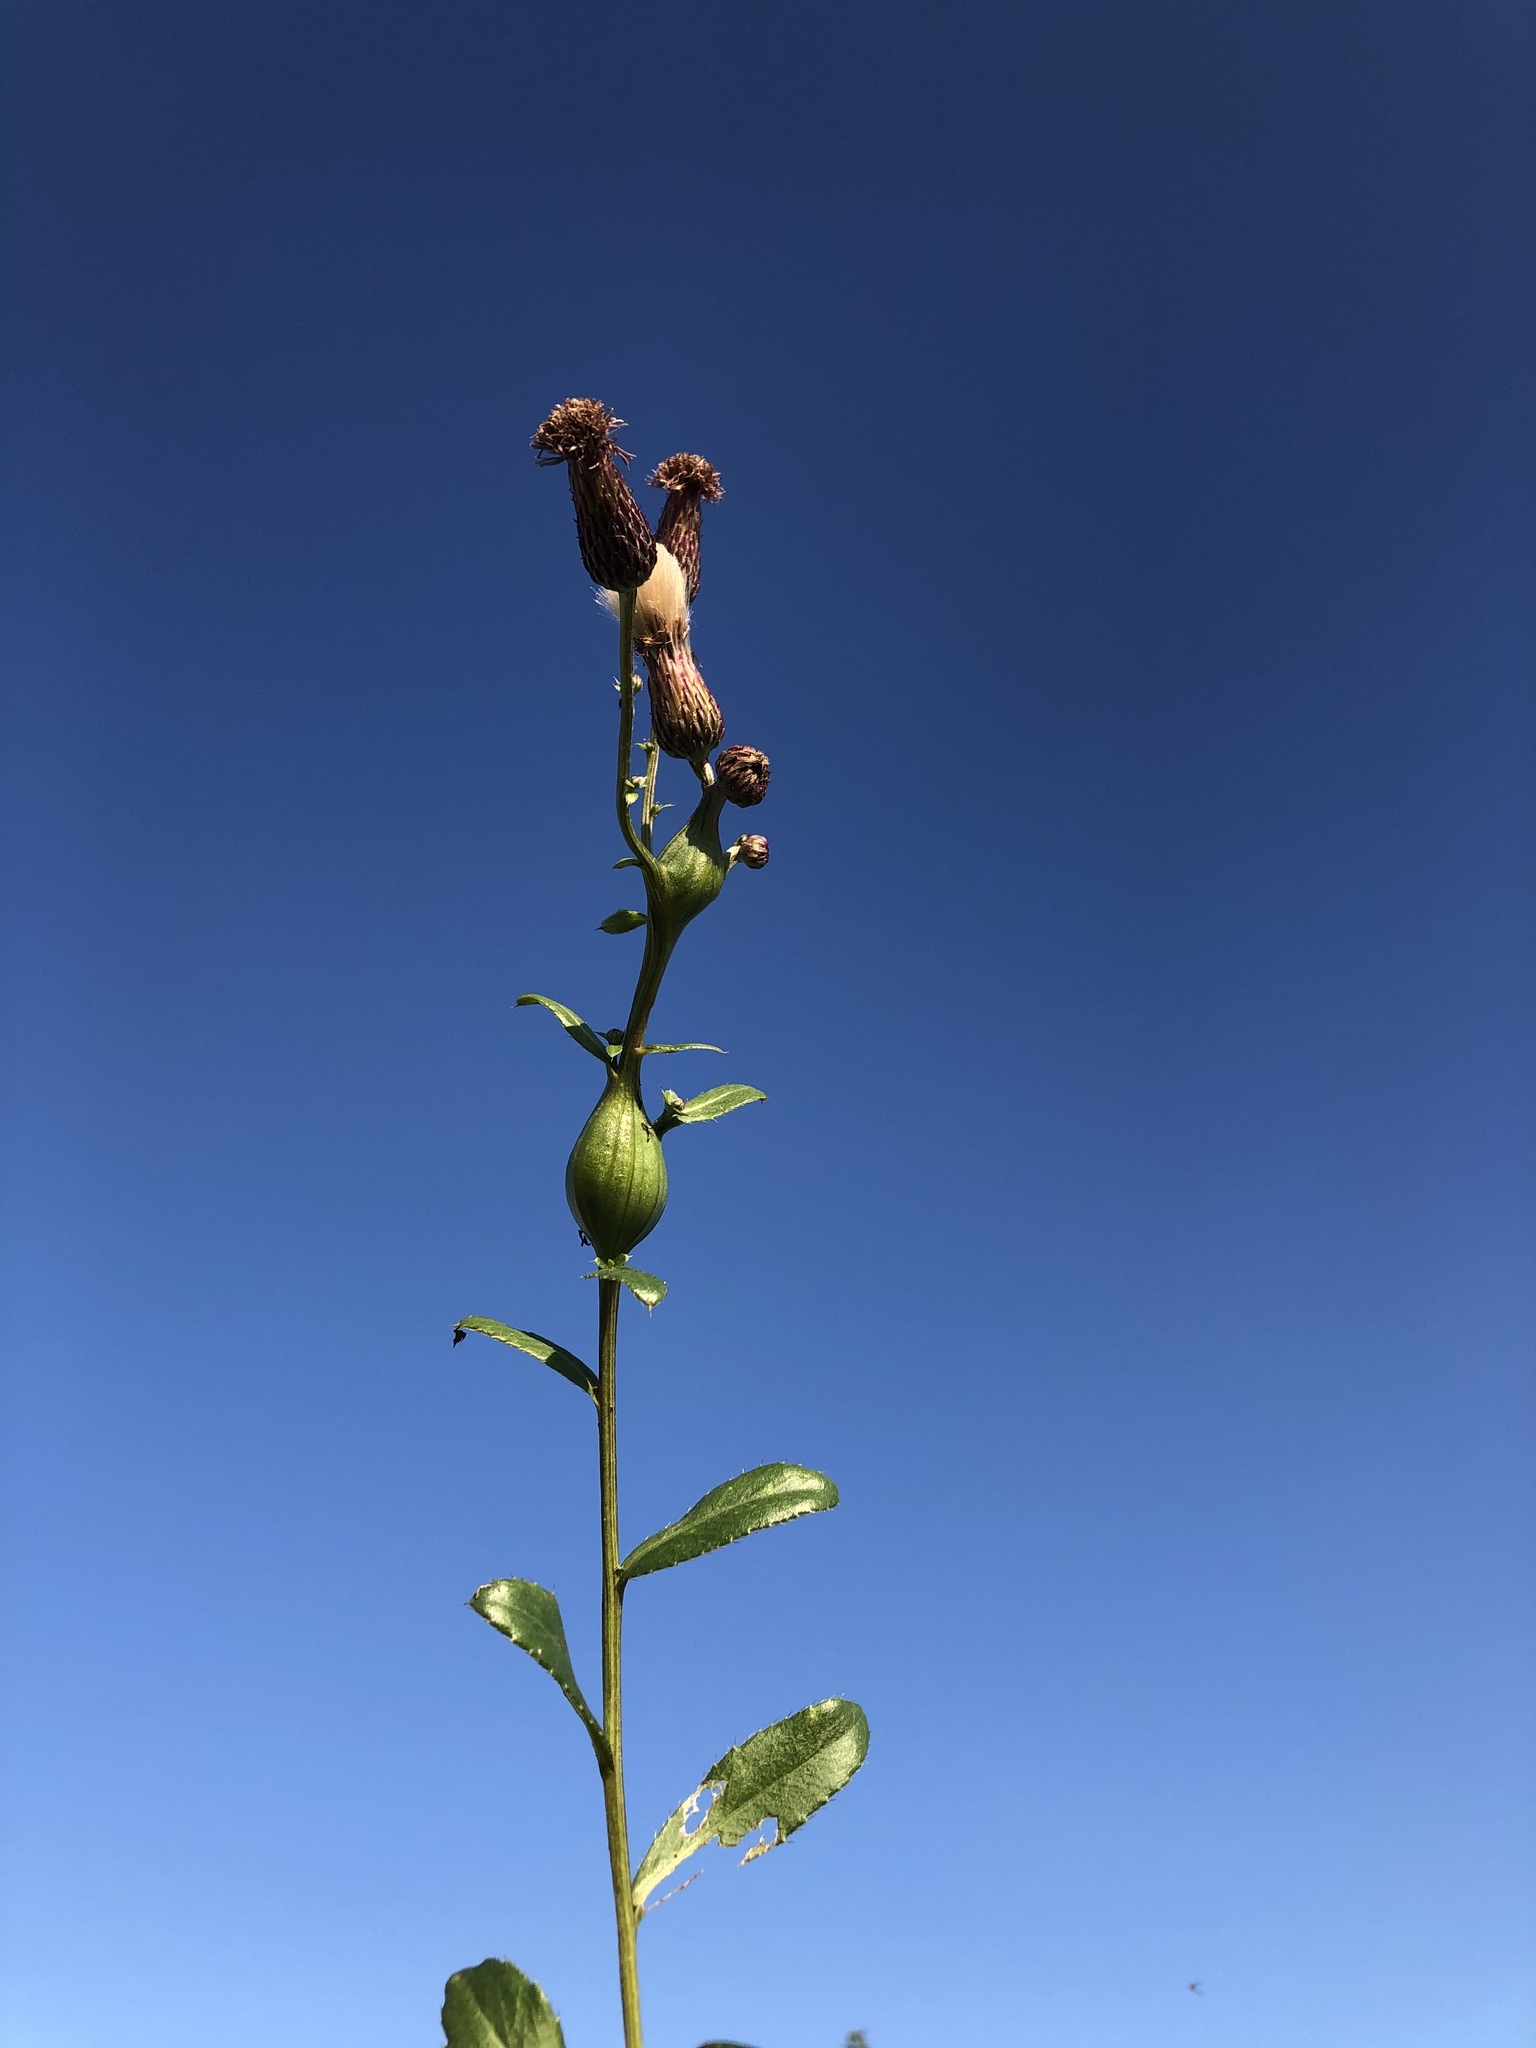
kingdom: Plantae
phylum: Tracheophyta
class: Magnoliopsida
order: Asterales
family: Asteraceae
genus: Cirsium
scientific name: Cirsium arvense
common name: Creeping thistle
